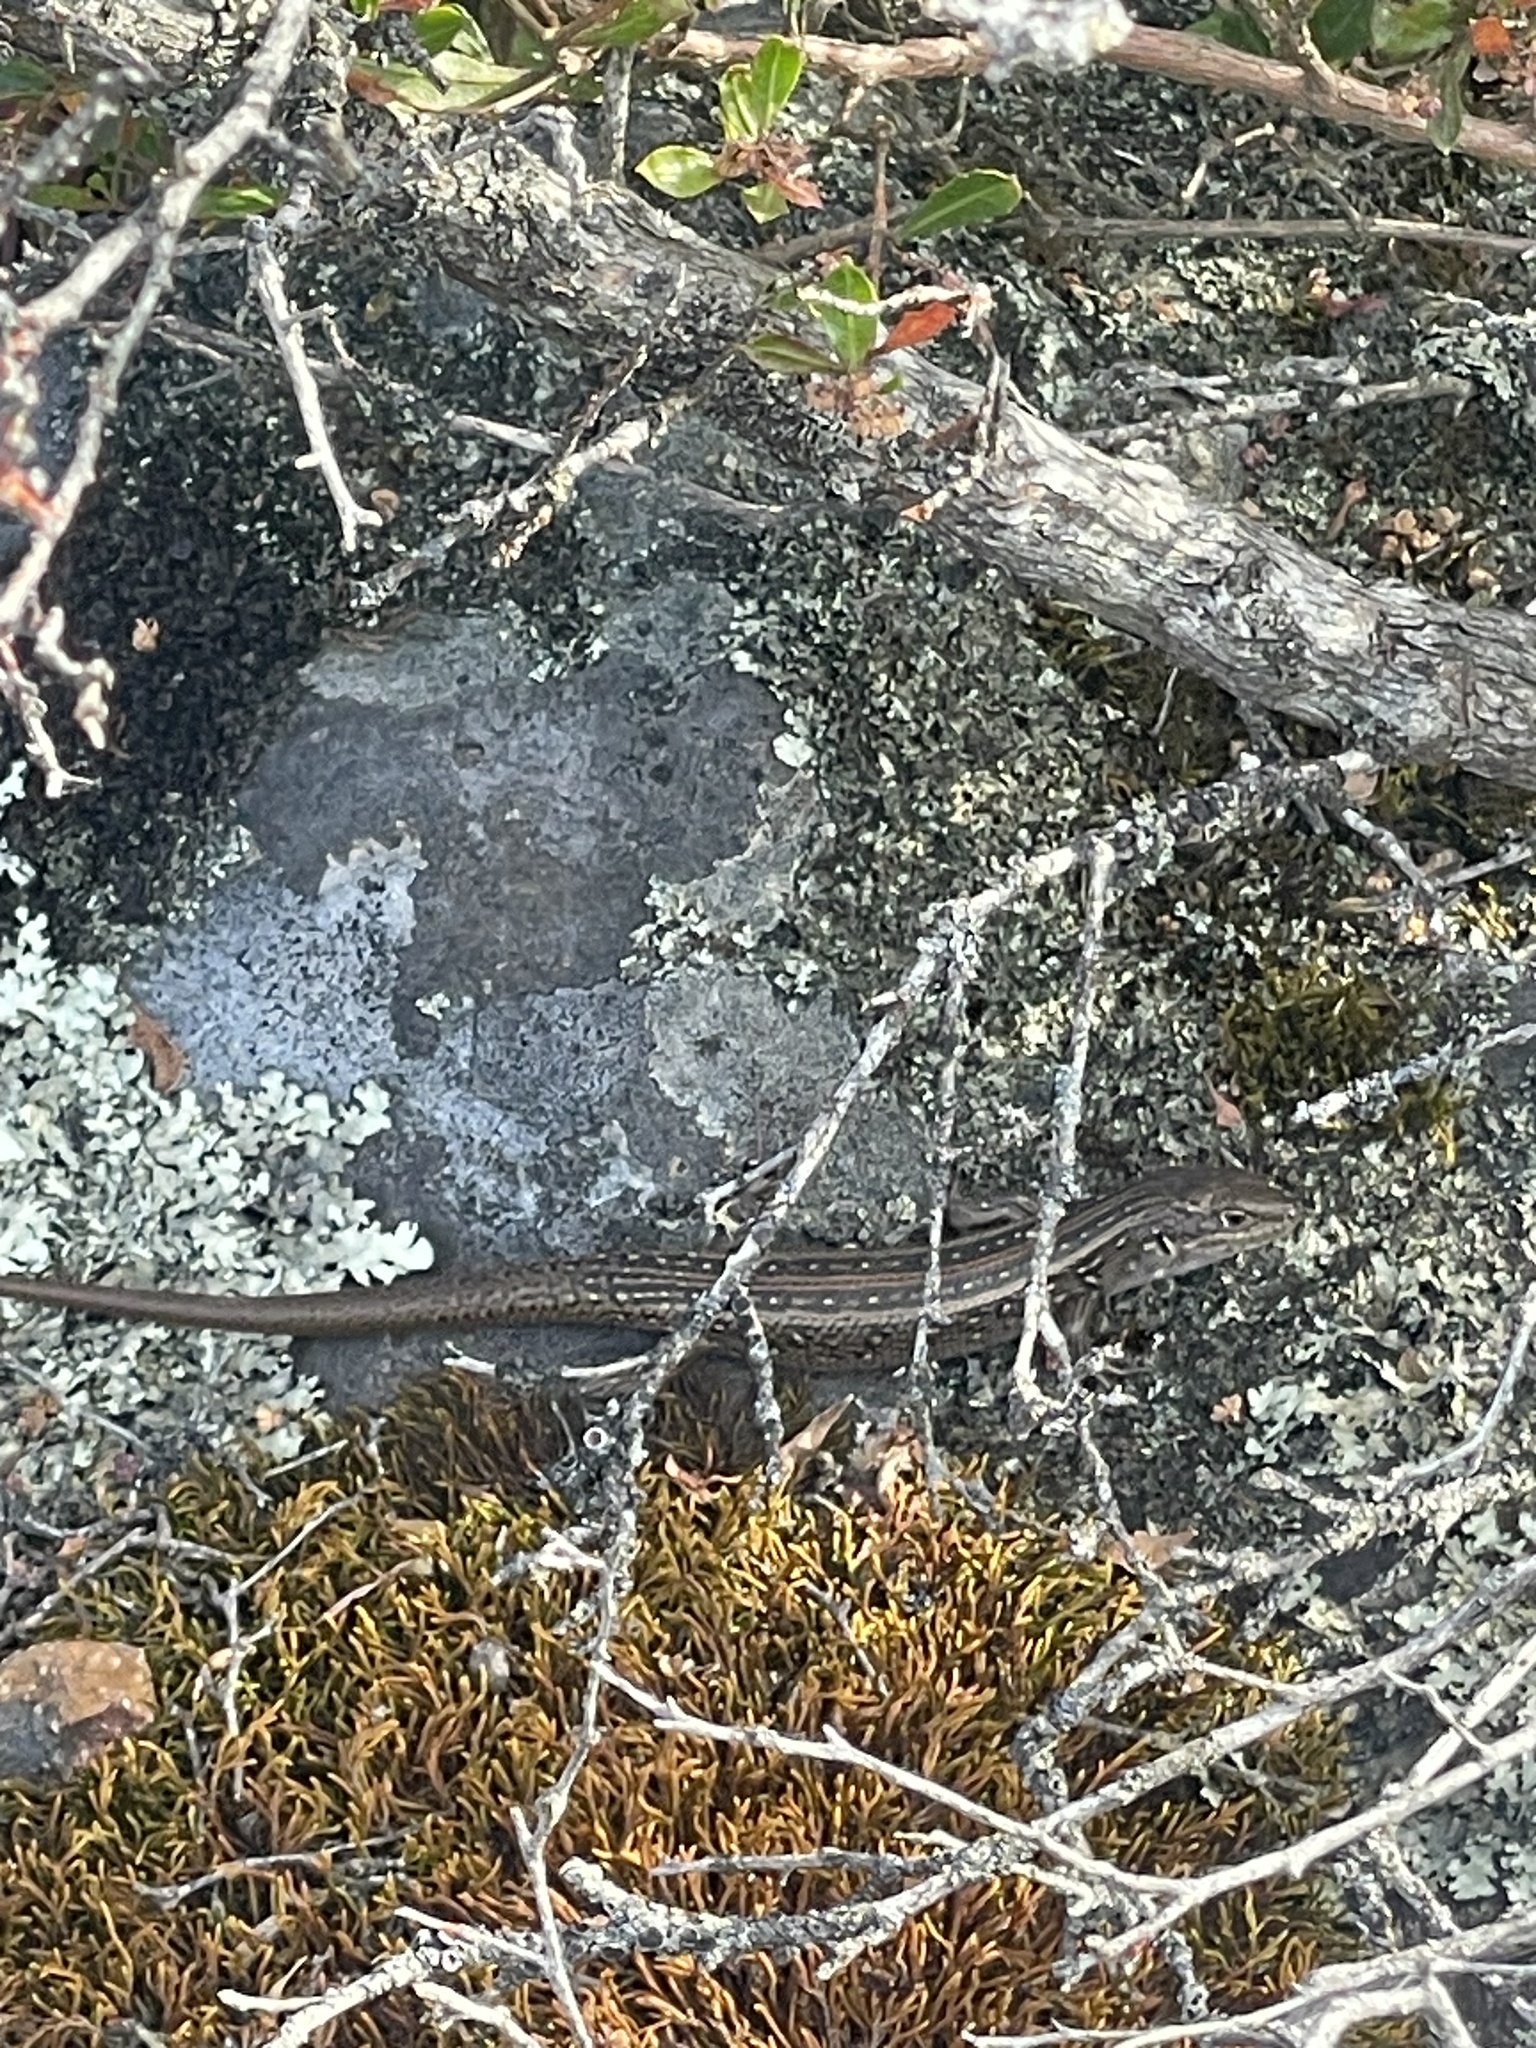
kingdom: Animalia
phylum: Chordata
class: Squamata
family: Scincidae
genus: Liopholis
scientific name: Liopholis whitii
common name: White's rock-skink
